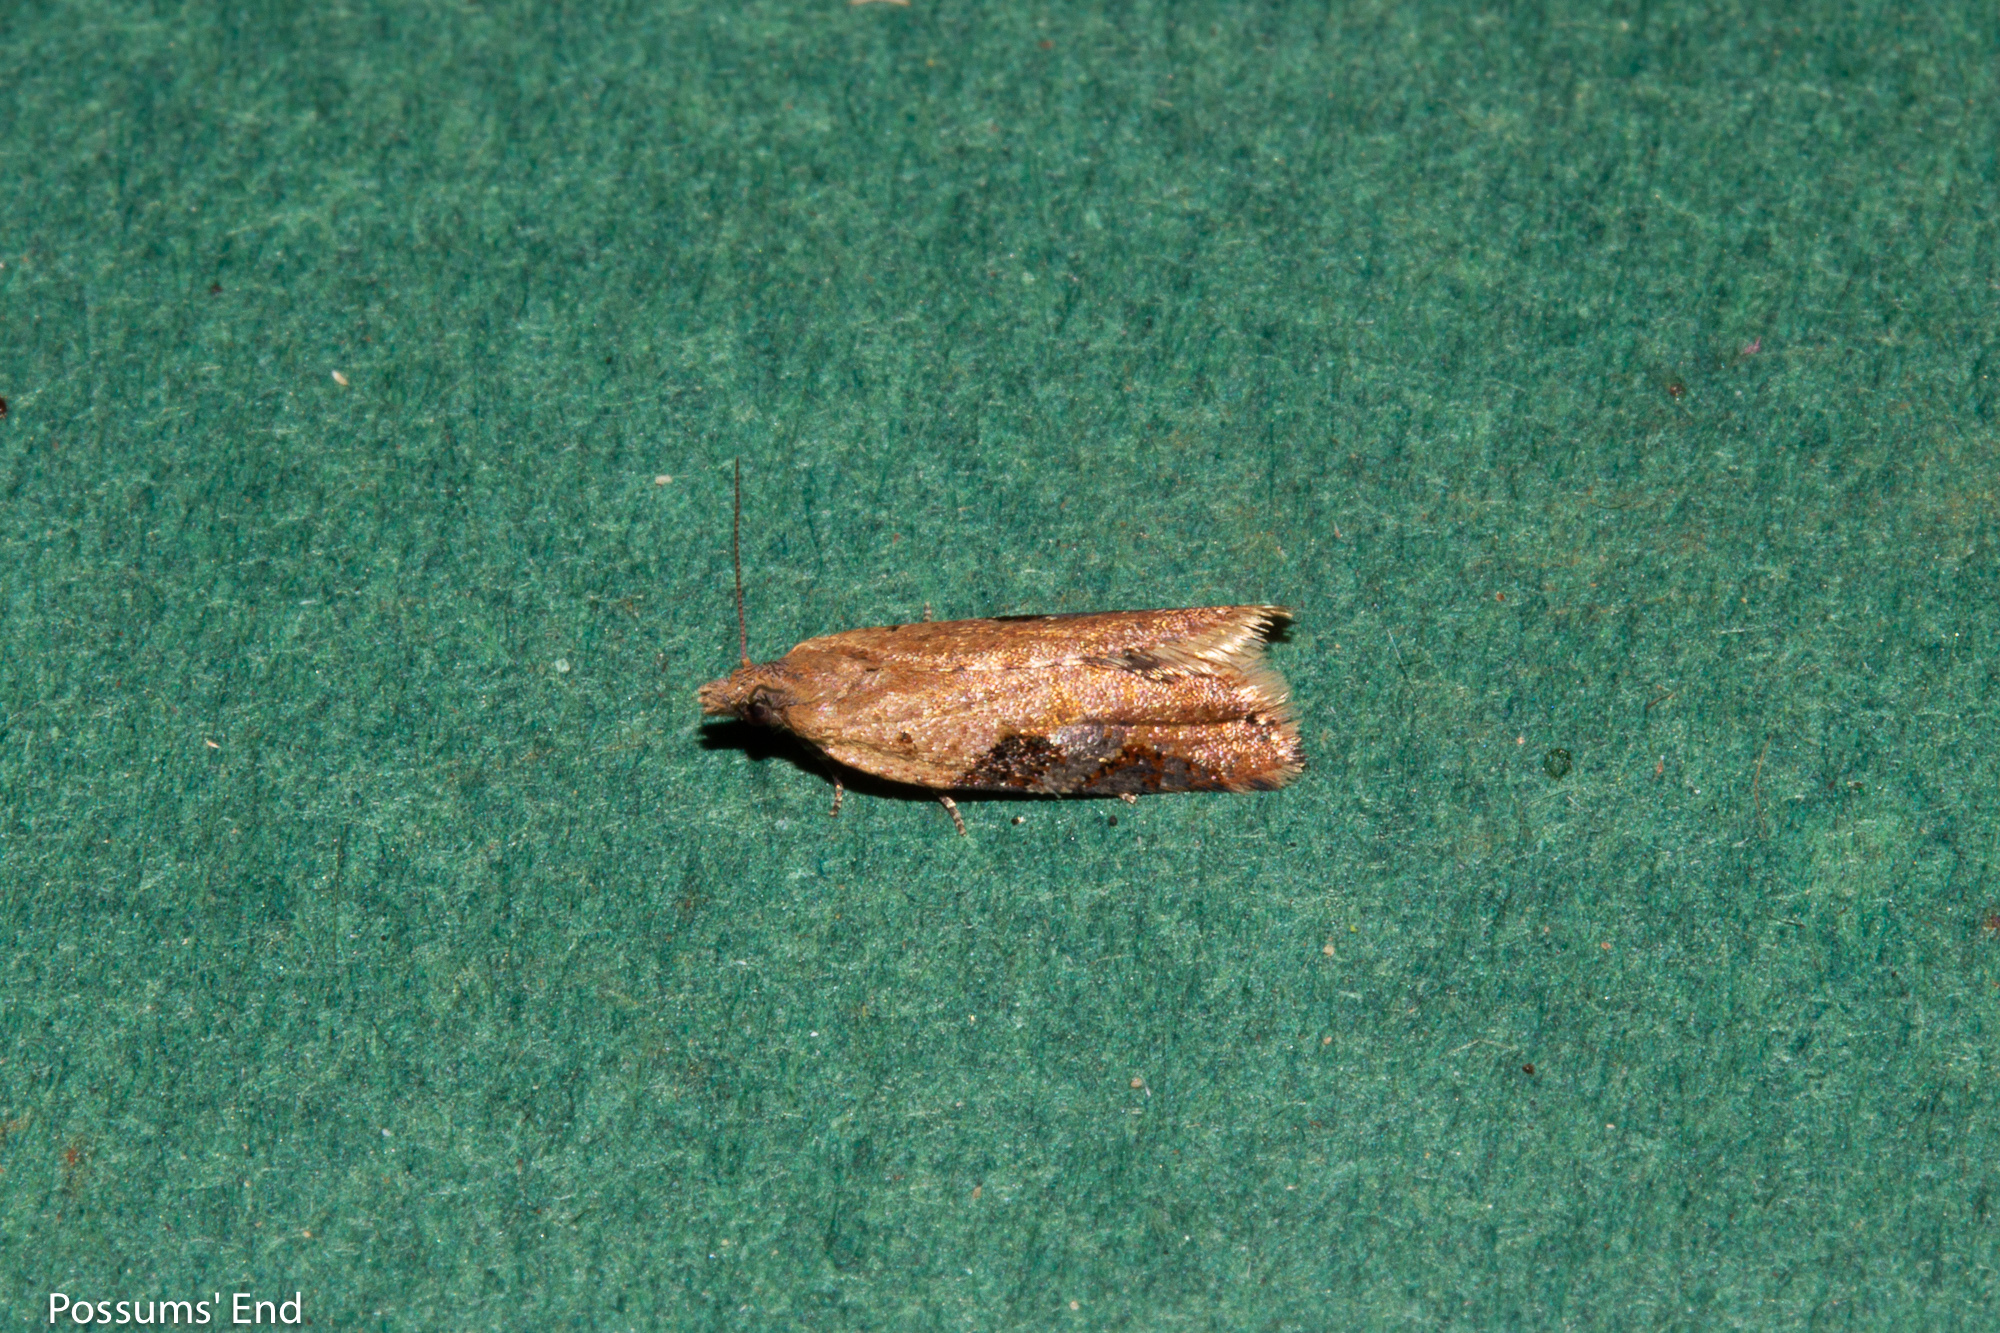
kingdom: Animalia
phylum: Arthropoda
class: Insecta
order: Lepidoptera
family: Tortricidae
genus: Capua
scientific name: Capua semiferana
